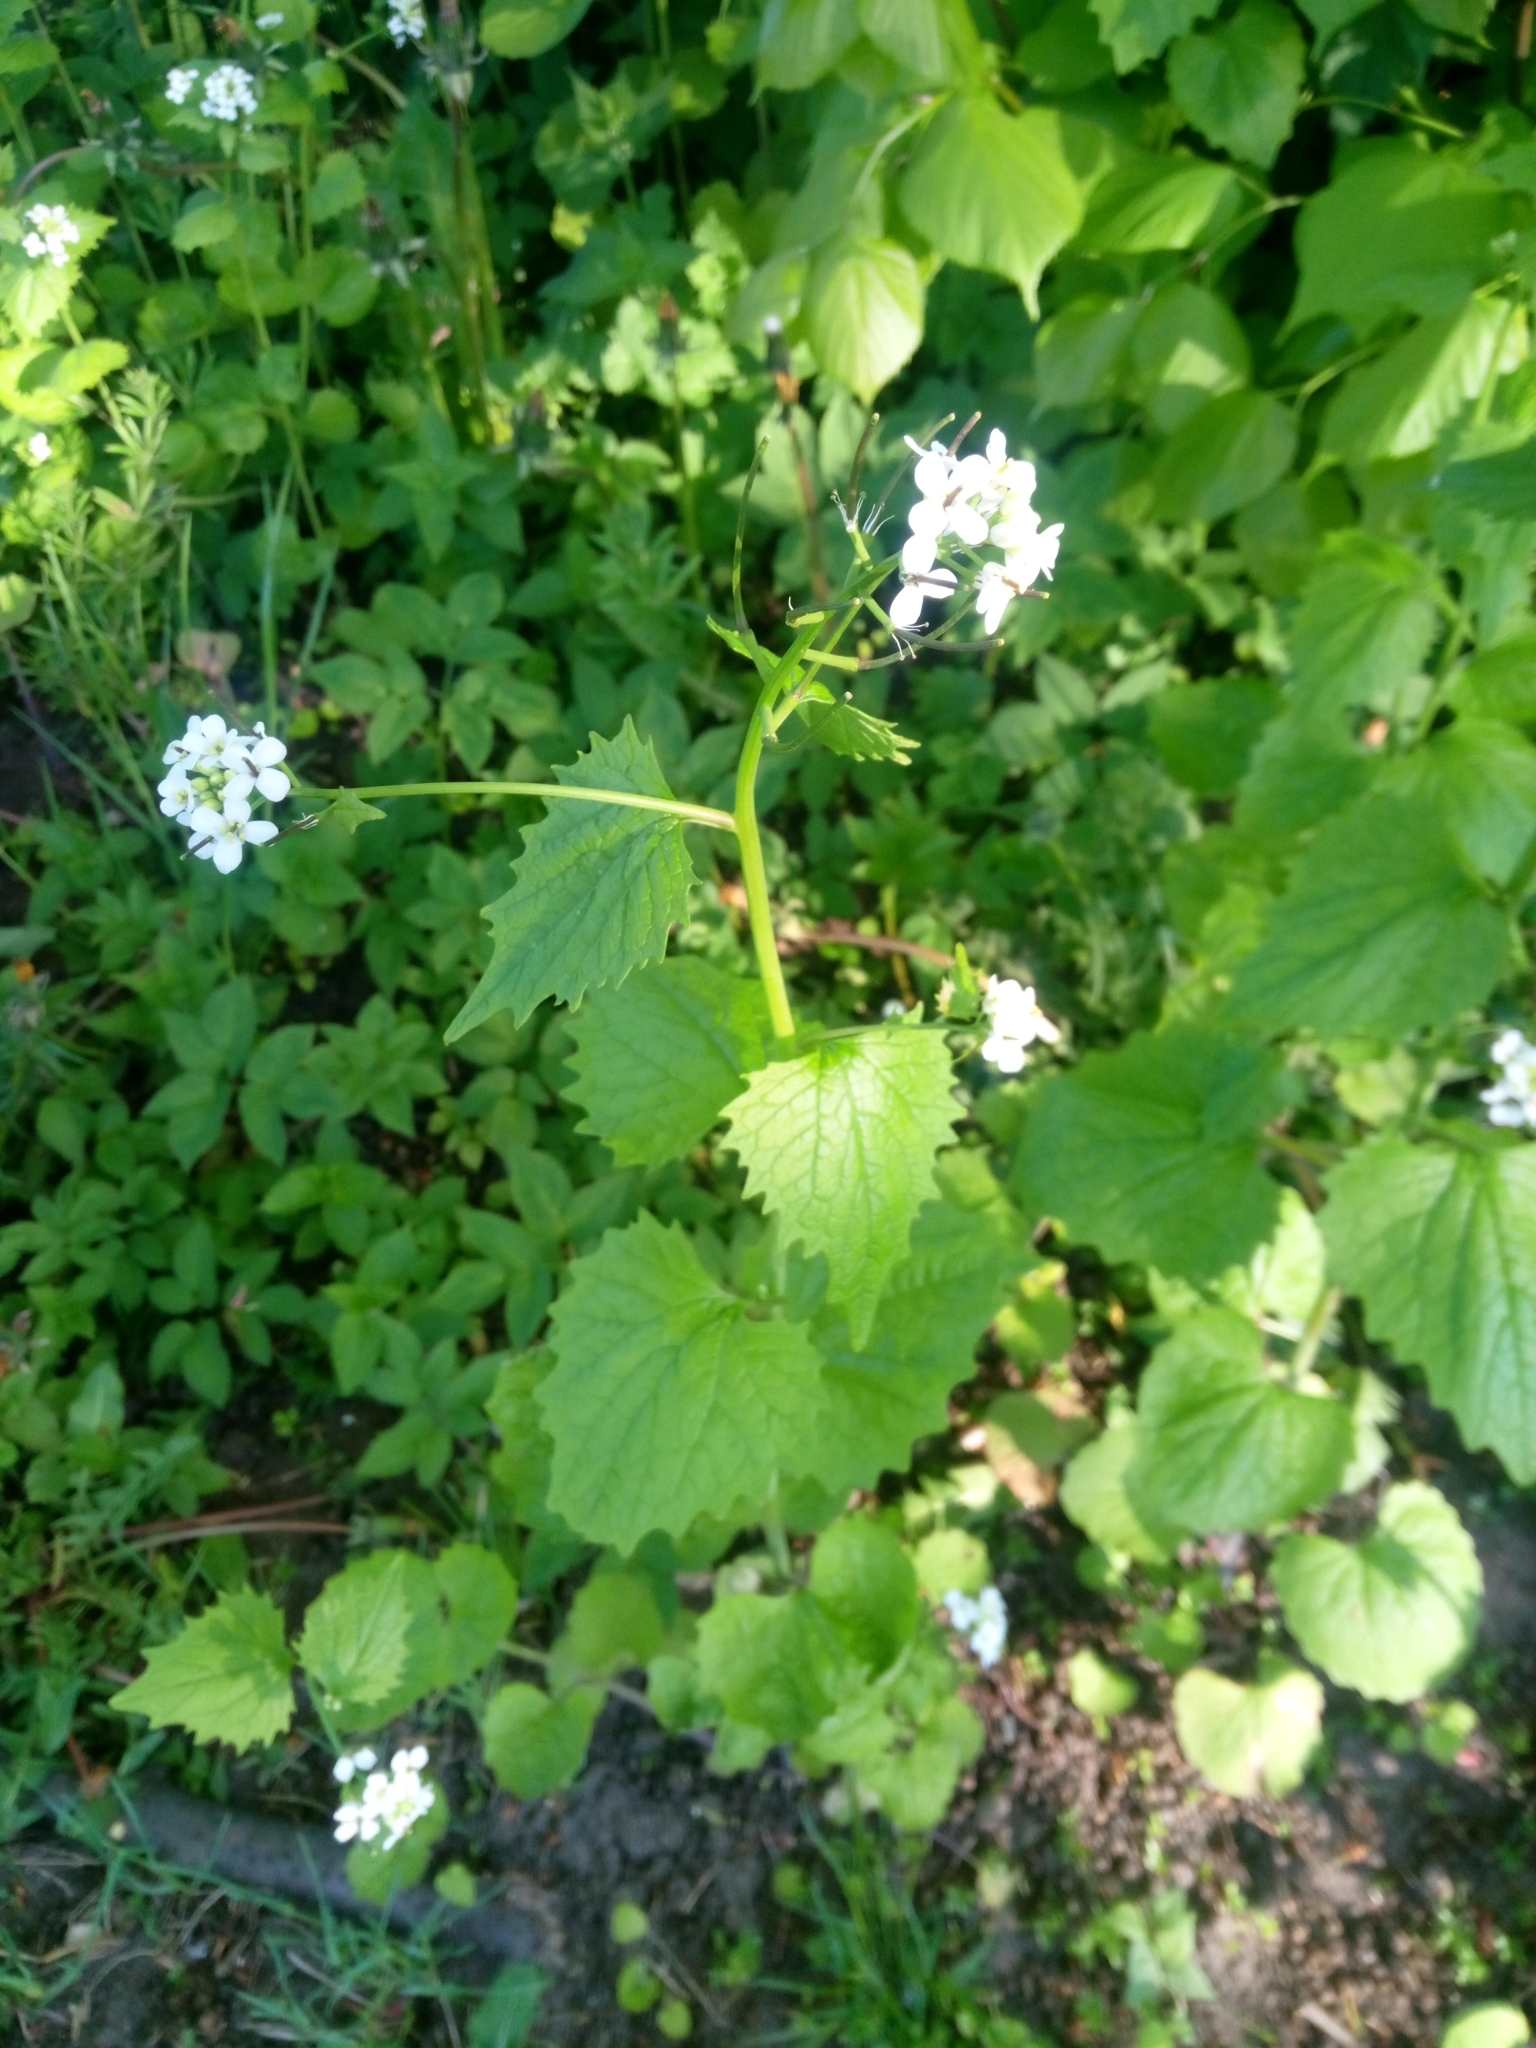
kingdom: Plantae
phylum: Tracheophyta
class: Magnoliopsida
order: Brassicales
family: Brassicaceae
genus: Alliaria
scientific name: Alliaria petiolata
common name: Garlic mustard
